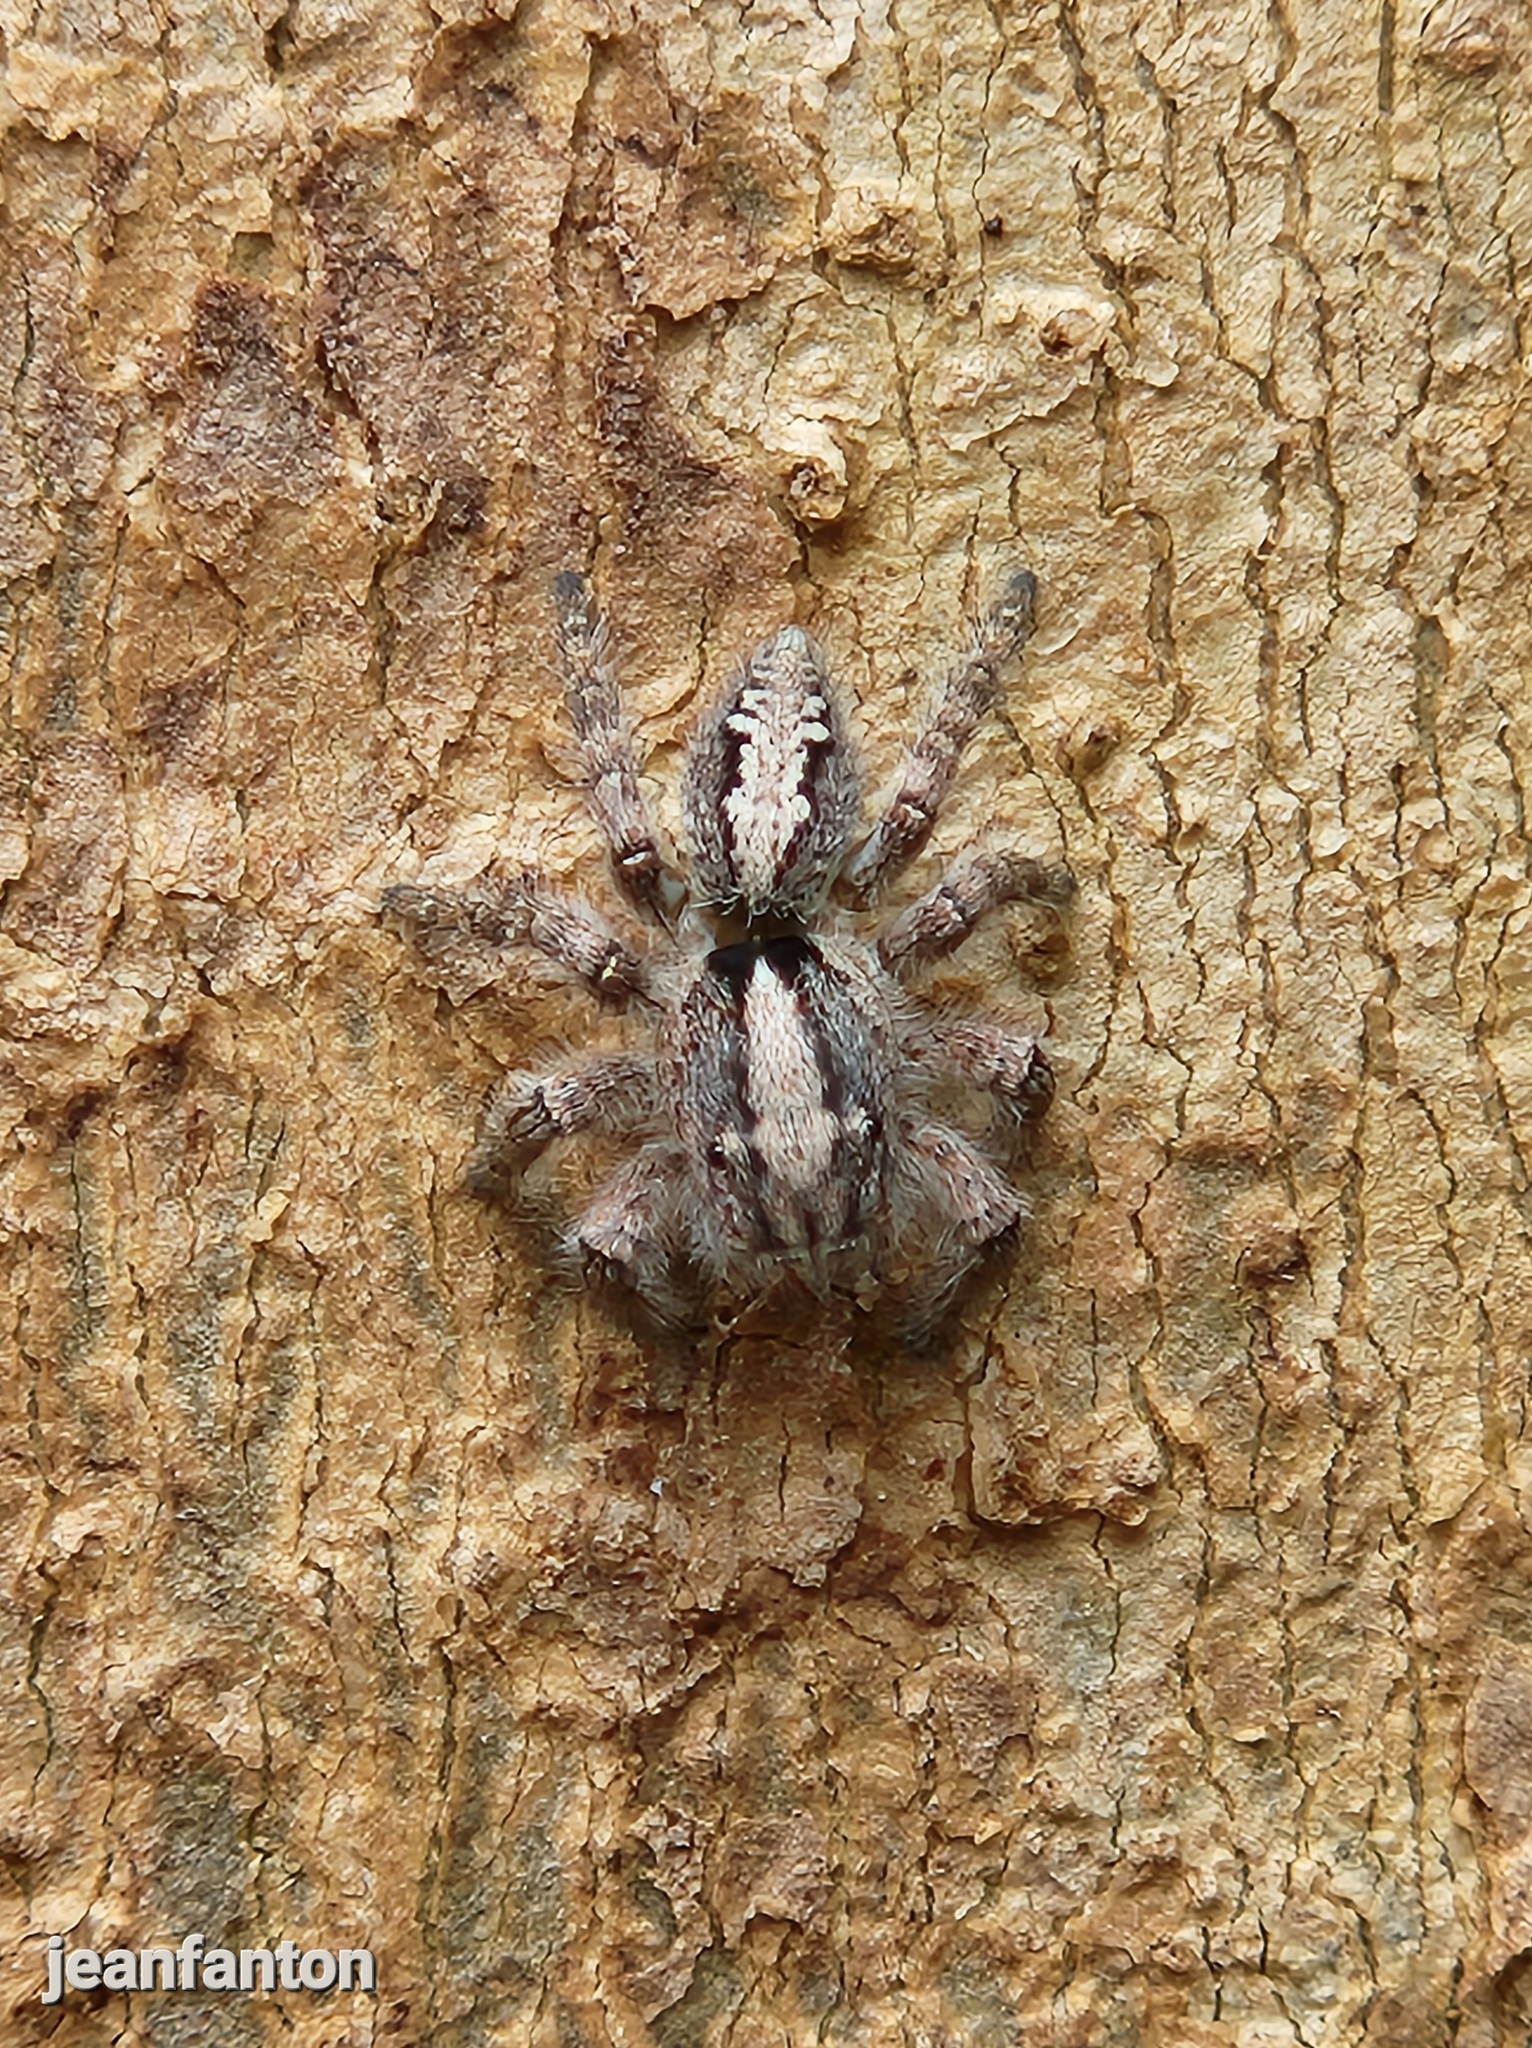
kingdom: Animalia
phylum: Arthropoda
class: Arachnida
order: Araneae
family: Salticidae
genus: Megafreya
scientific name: Megafreya sutrix
